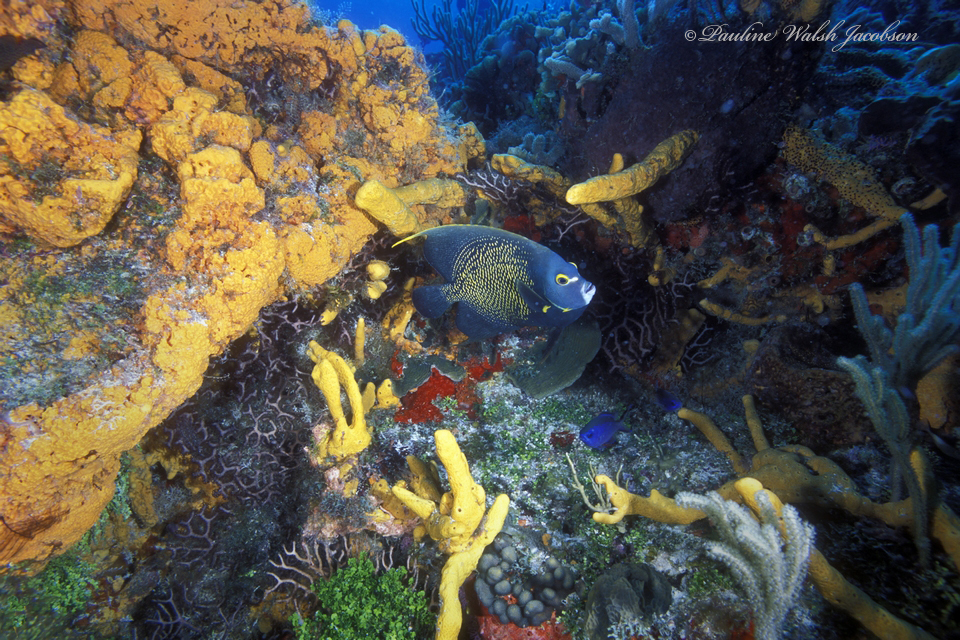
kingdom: Animalia
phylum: Chordata
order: Perciformes
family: Pomacanthidae
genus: Pomacanthus
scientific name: Pomacanthus paru
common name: French angelfish
